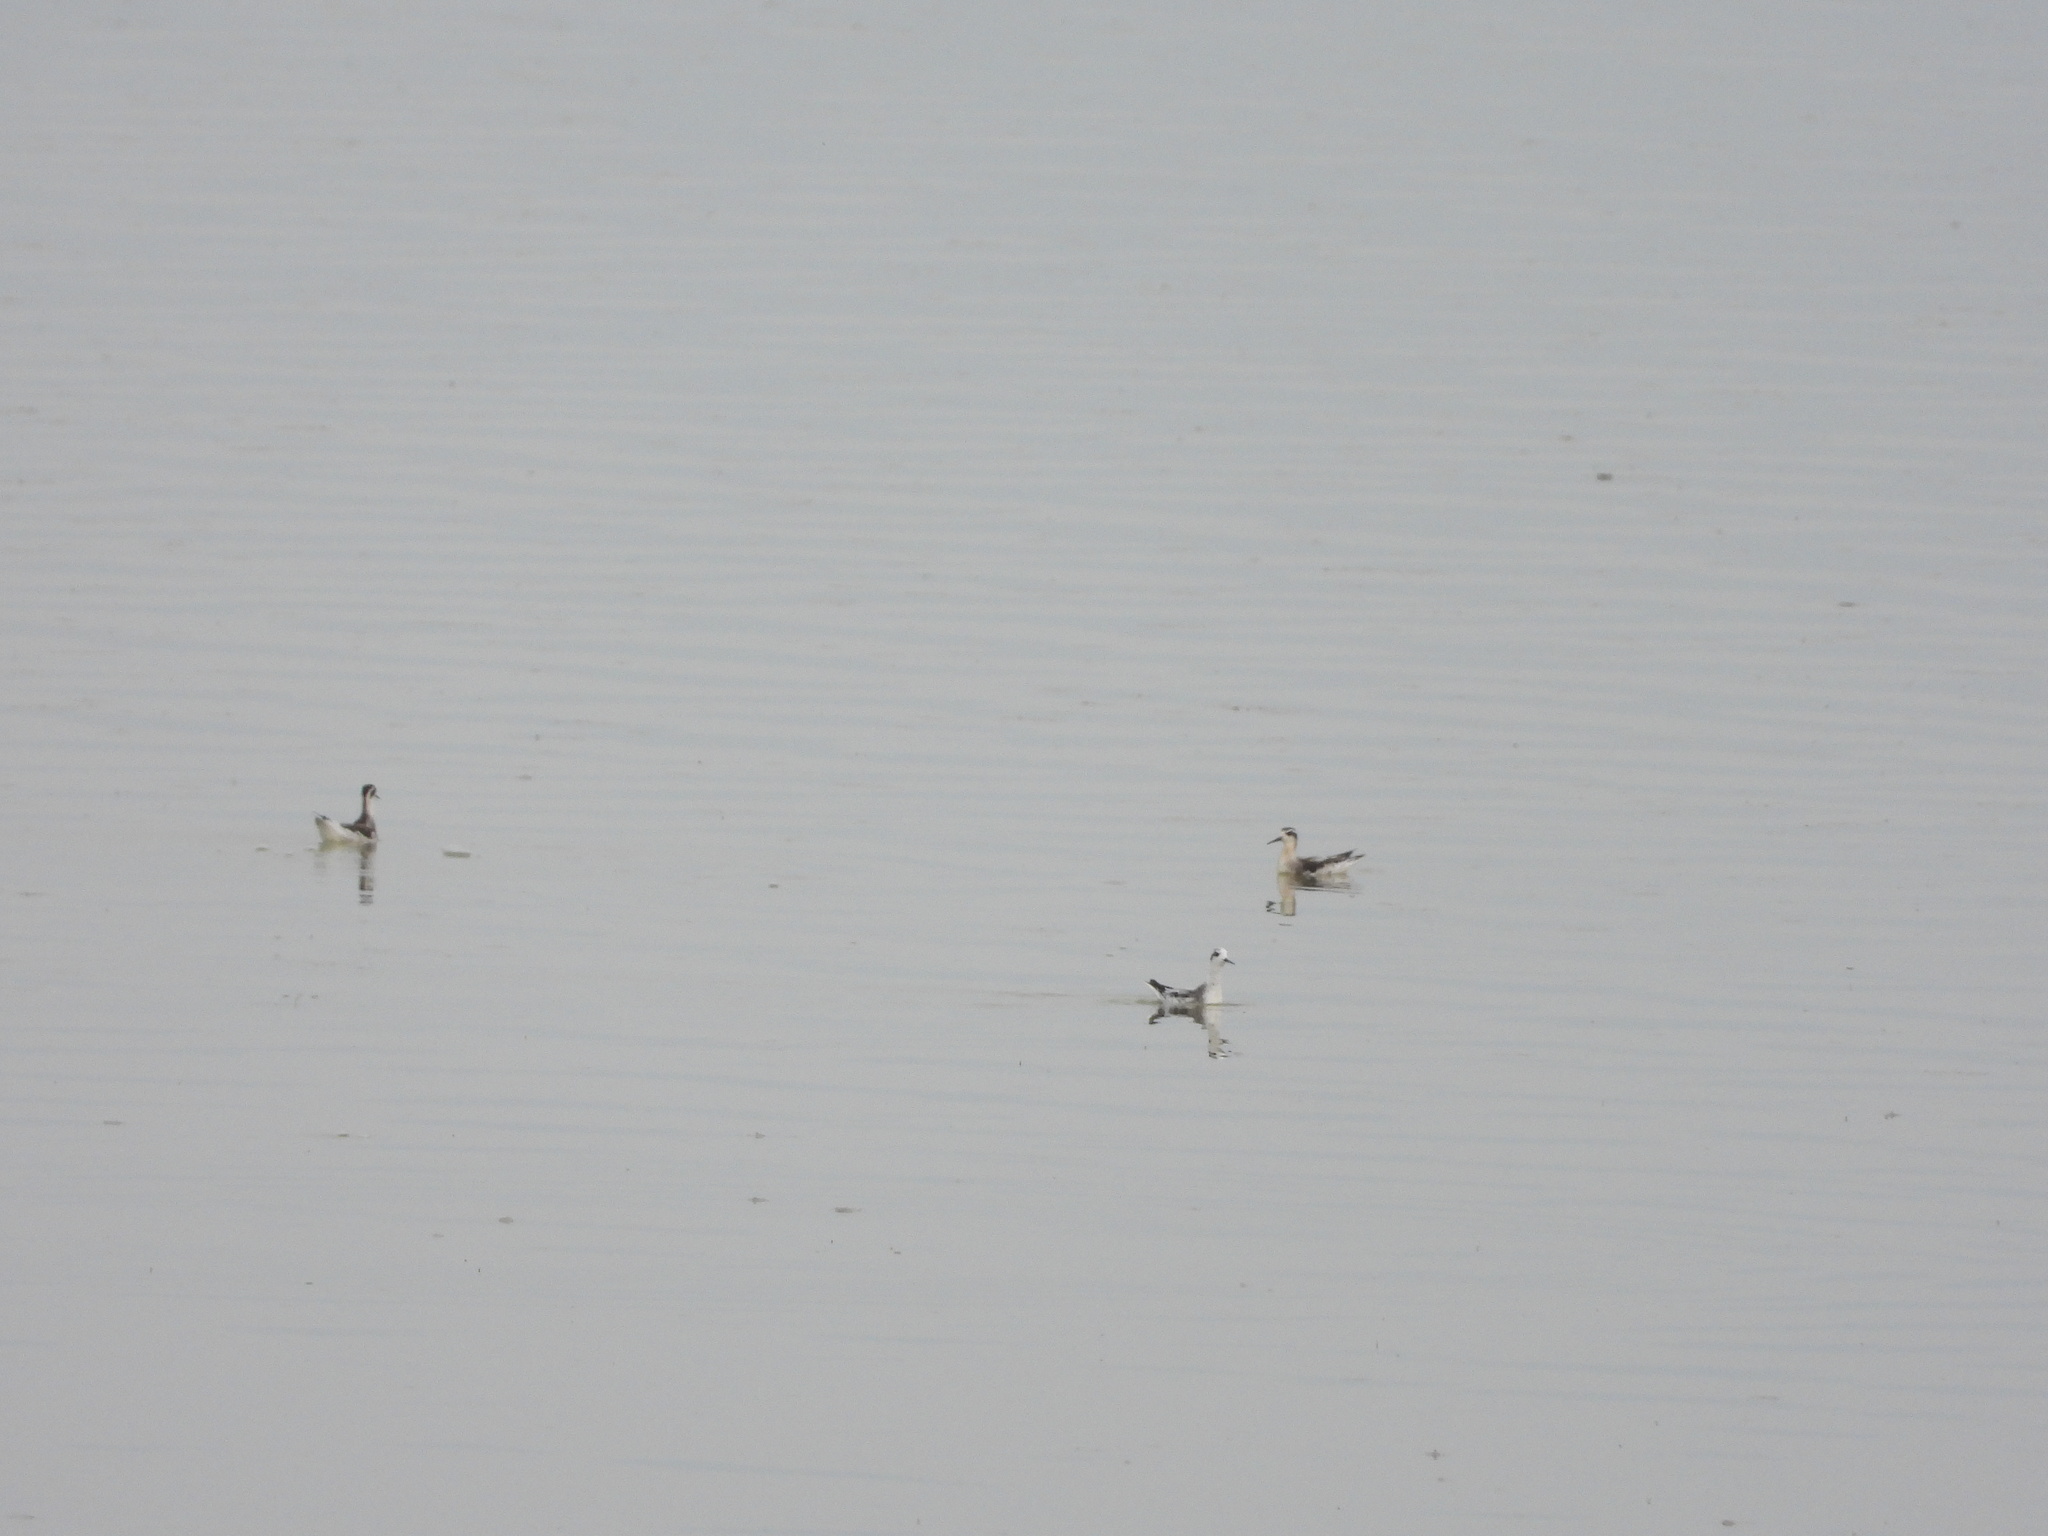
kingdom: Animalia
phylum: Chordata
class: Aves
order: Charadriiformes
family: Scolopacidae
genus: Phalaropus
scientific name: Phalaropus lobatus
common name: Red-necked phalarope
